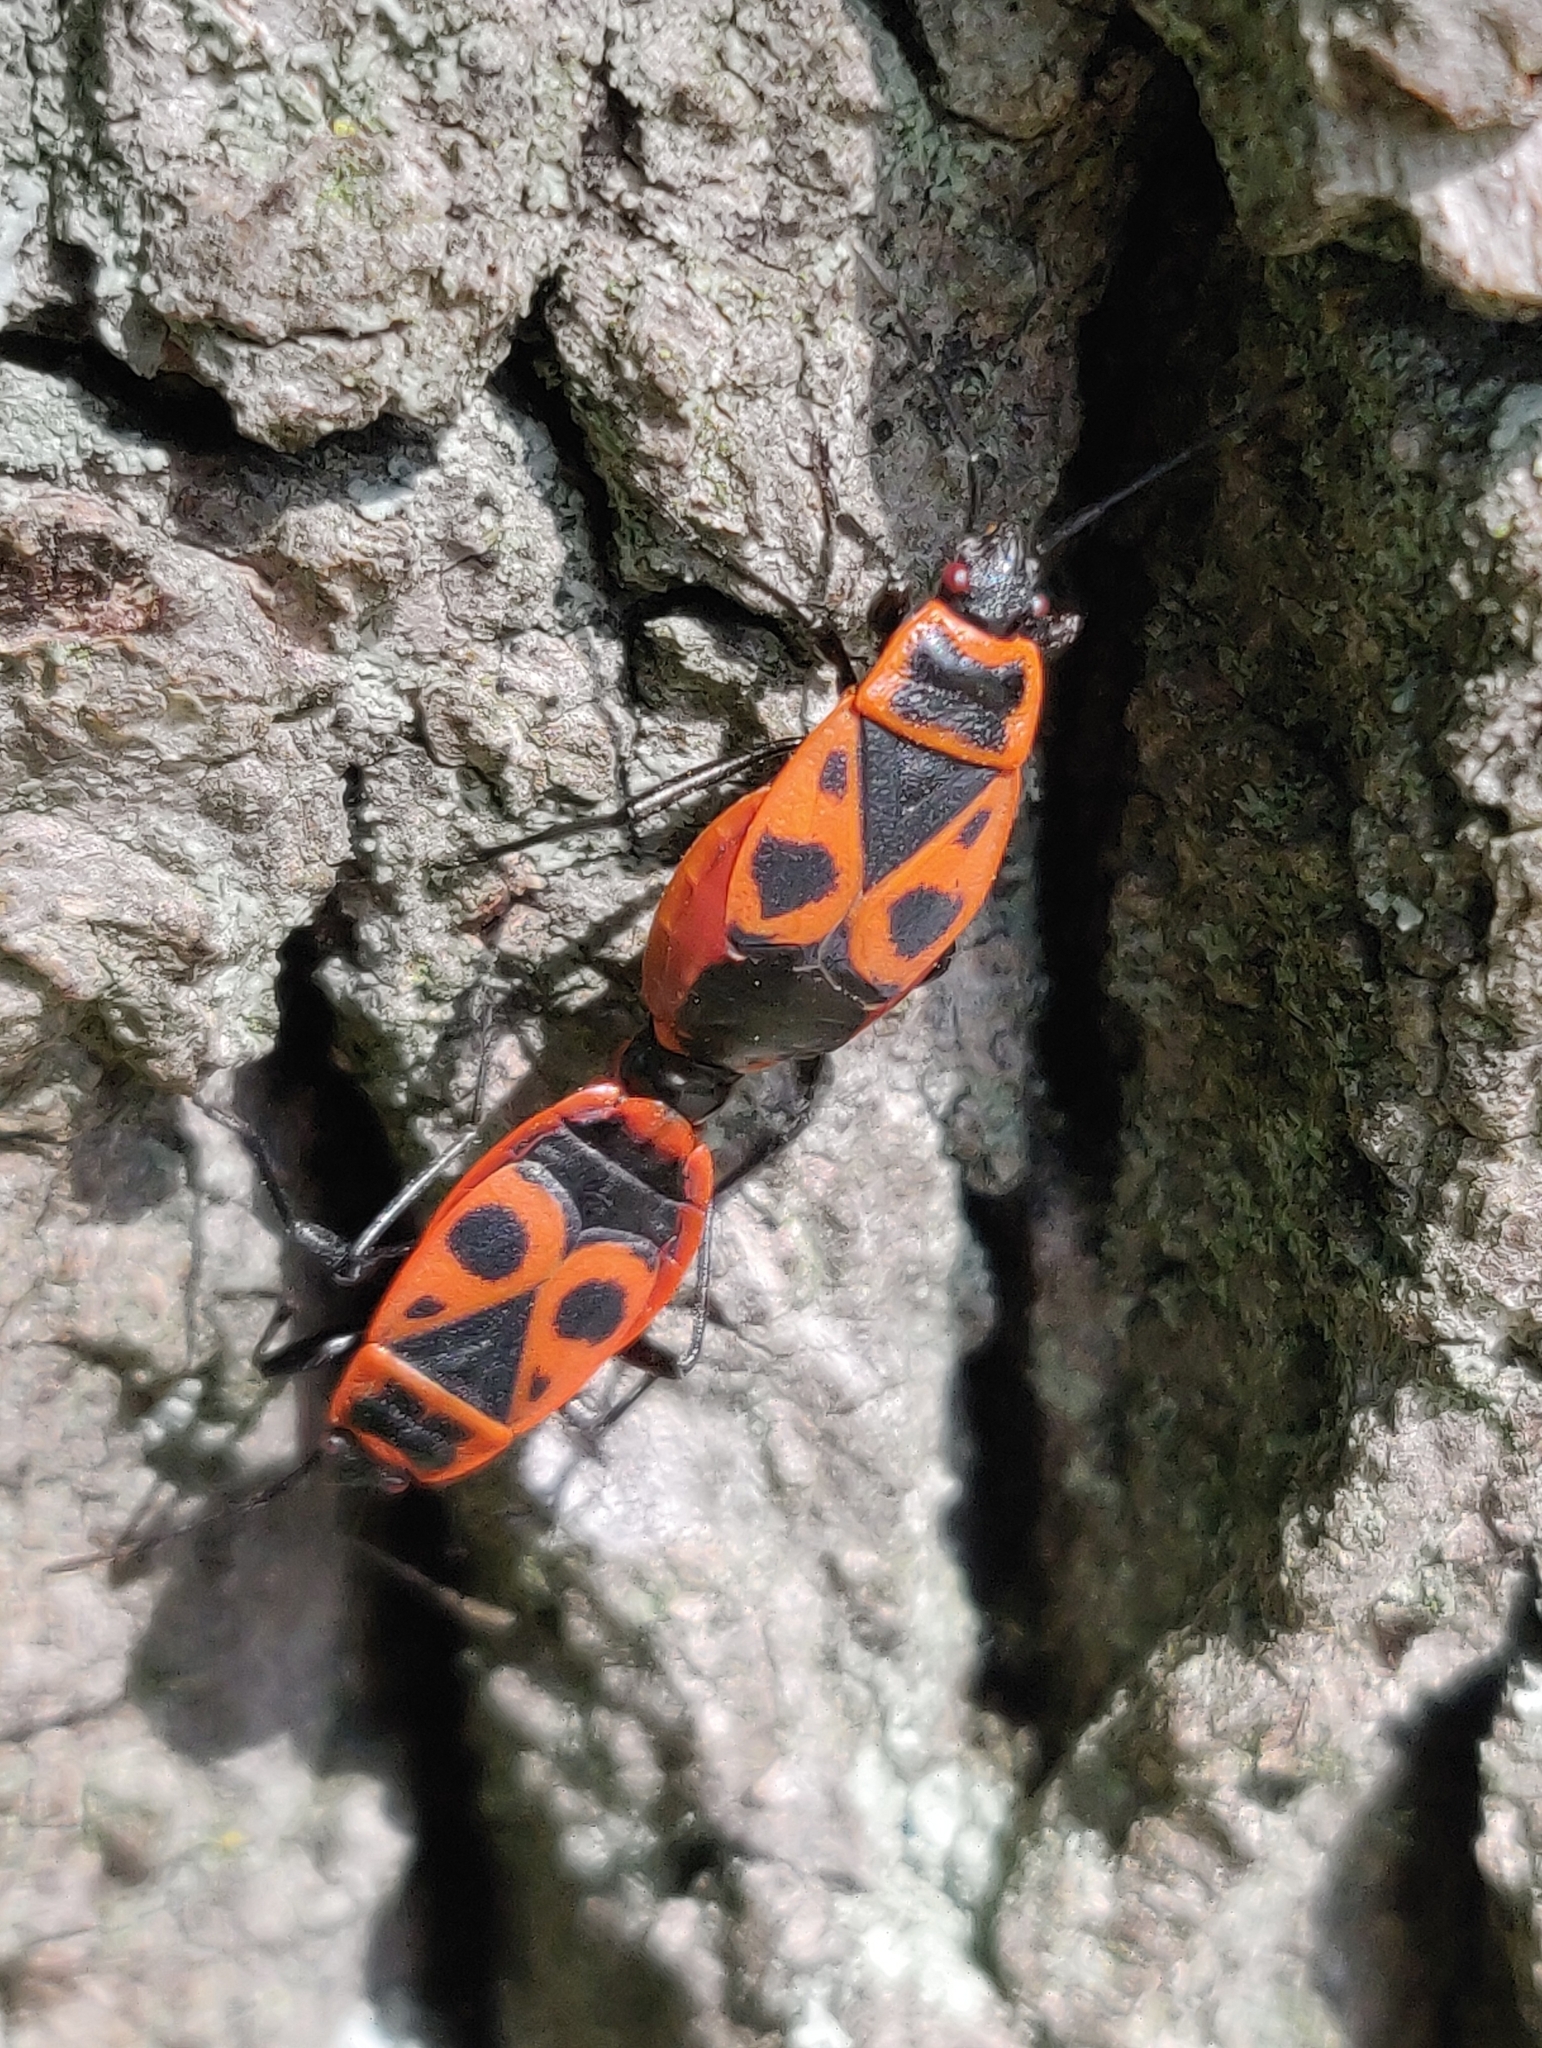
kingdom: Animalia
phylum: Arthropoda
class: Insecta
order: Hemiptera
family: Pyrrhocoridae
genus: Pyrrhocoris
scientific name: Pyrrhocoris apterus
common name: Firebug
